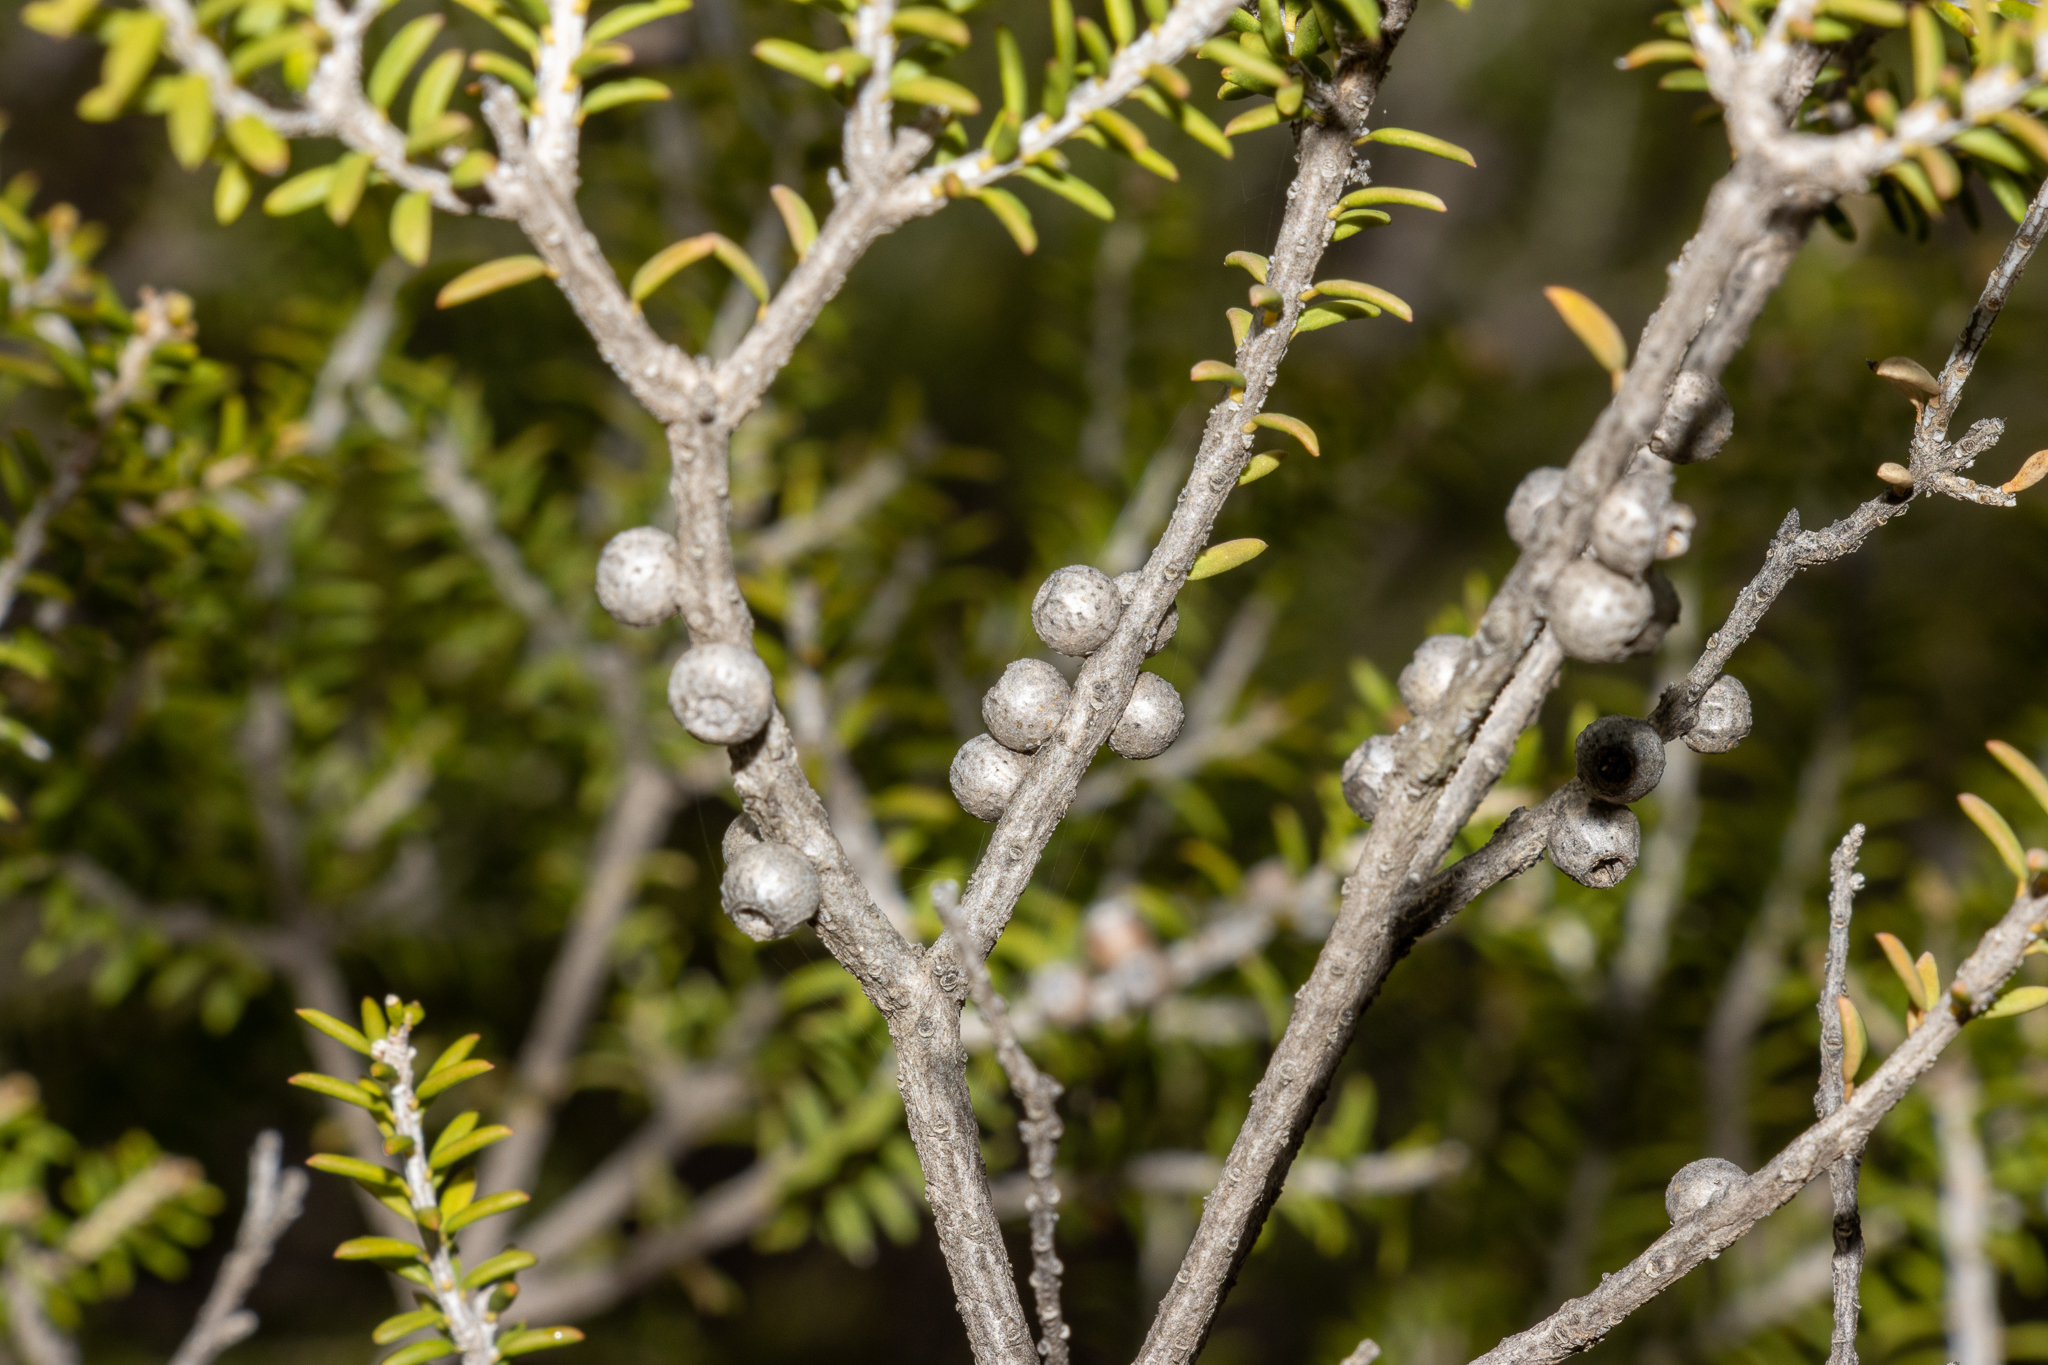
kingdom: Plantae
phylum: Tracheophyta
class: Magnoliopsida
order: Myrtales
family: Myrtaceae
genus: Melaleuca
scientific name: Melaleuca lanceolata
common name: Rottnest island teatree
